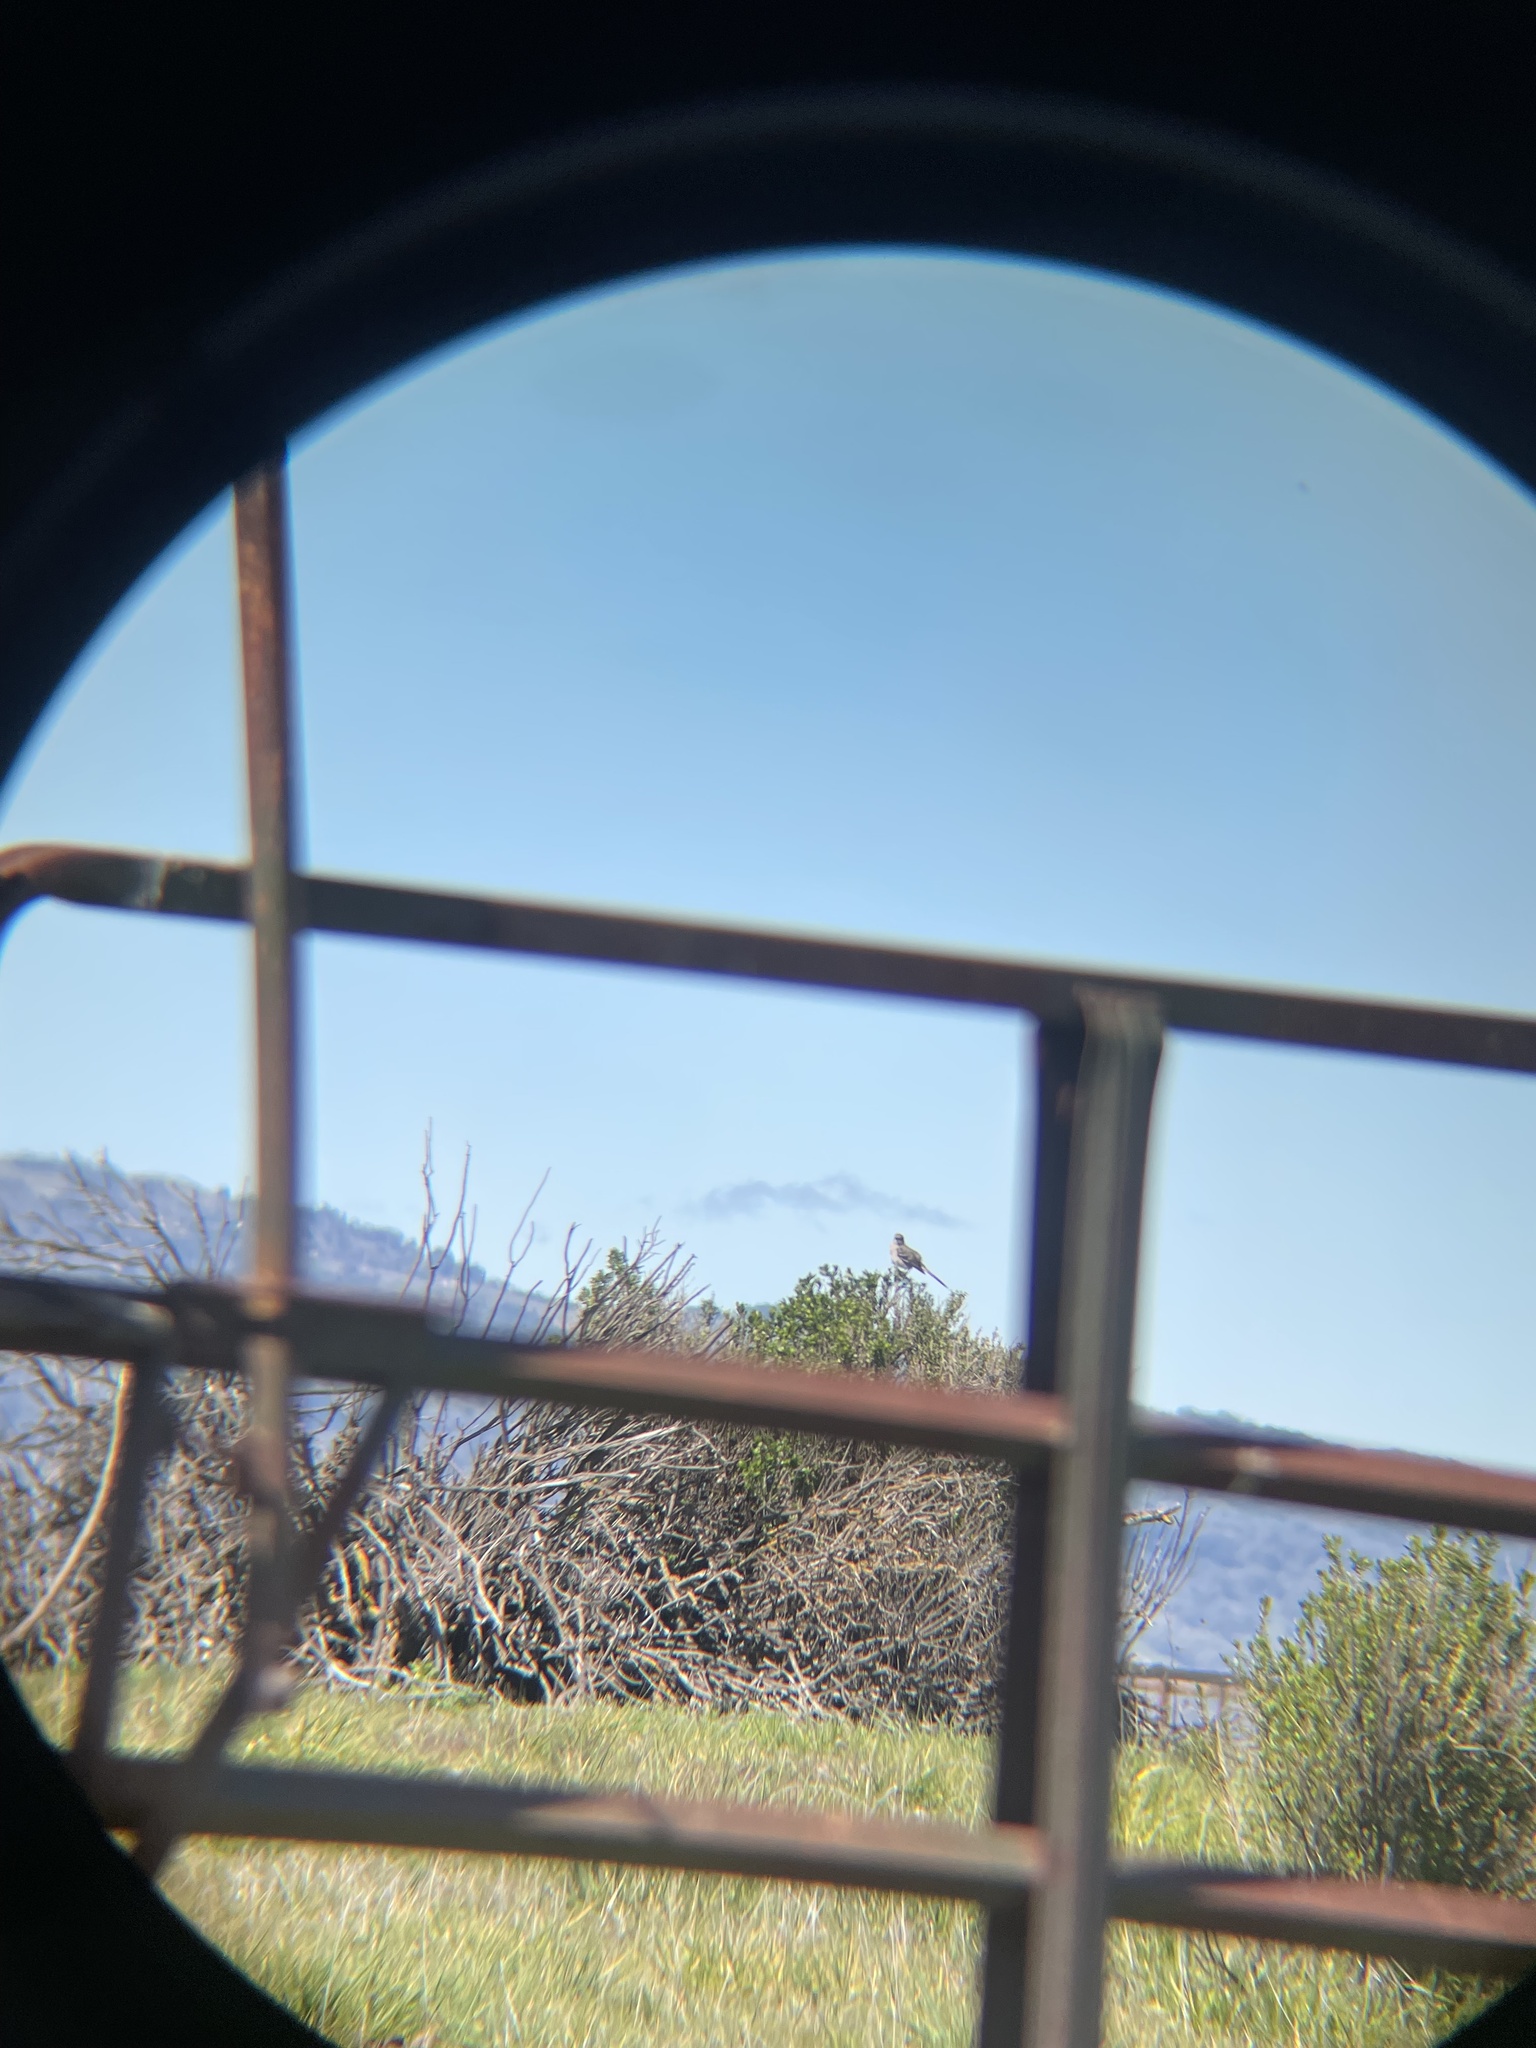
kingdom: Animalia
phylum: Chordata
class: Aves
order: Passeriformes
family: Mimidae
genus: Mimus
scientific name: Mimus polyglottos
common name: Northern mockingbird
